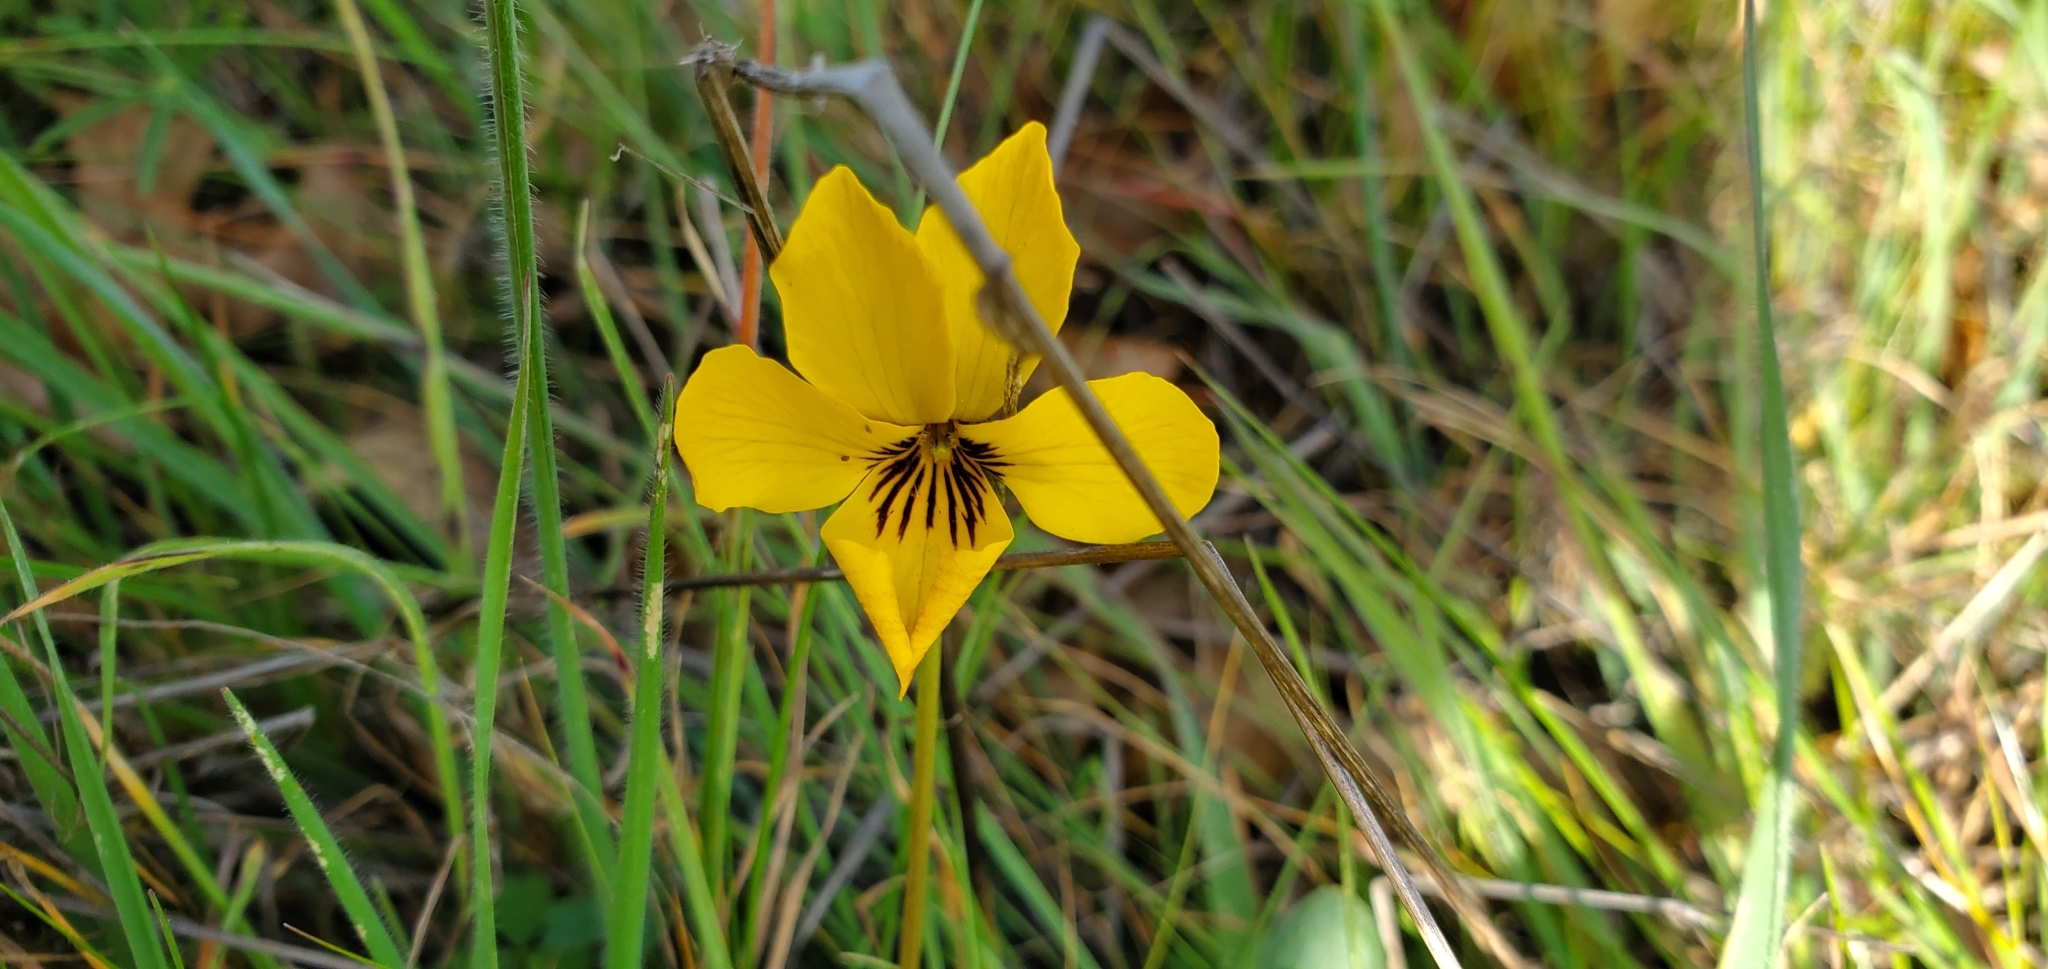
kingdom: Plantae
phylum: Tracheophyta
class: Magnoliopsida
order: Malpighiales
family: Violaceae
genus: Viola
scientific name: Viola pedunculata
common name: California golden violet
